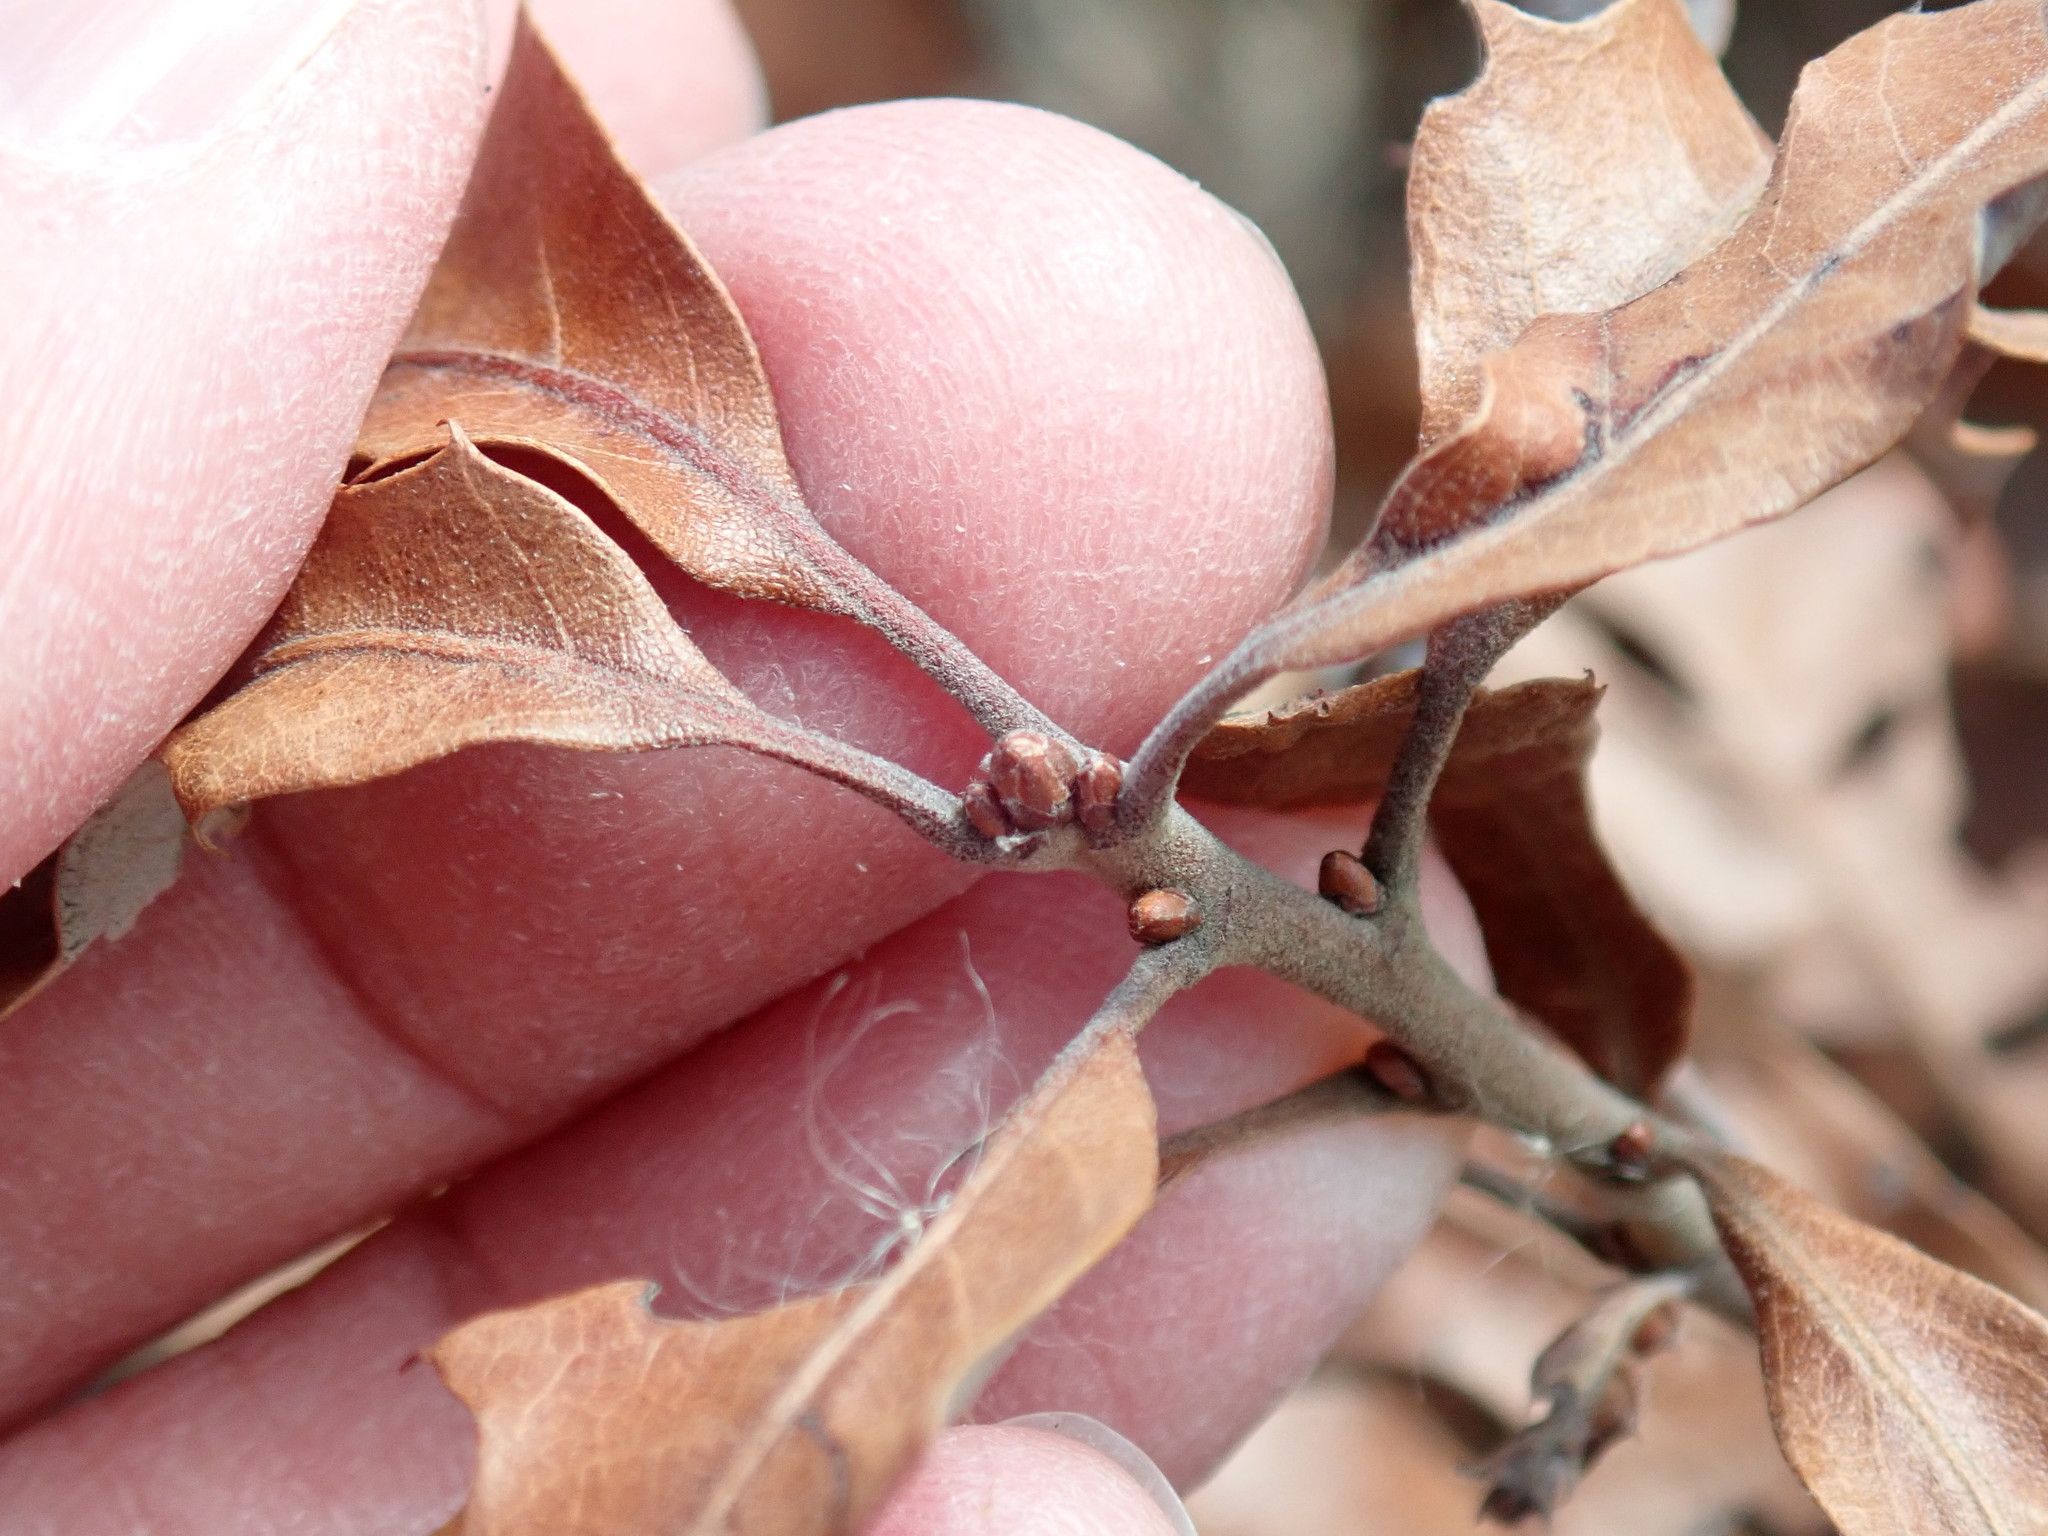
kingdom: Plantae
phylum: Tracheophyta
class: Magnoliopsida
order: Fagales
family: Fagaceae
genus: Quercus
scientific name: Quercus ilicifolia
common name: Bear oak
